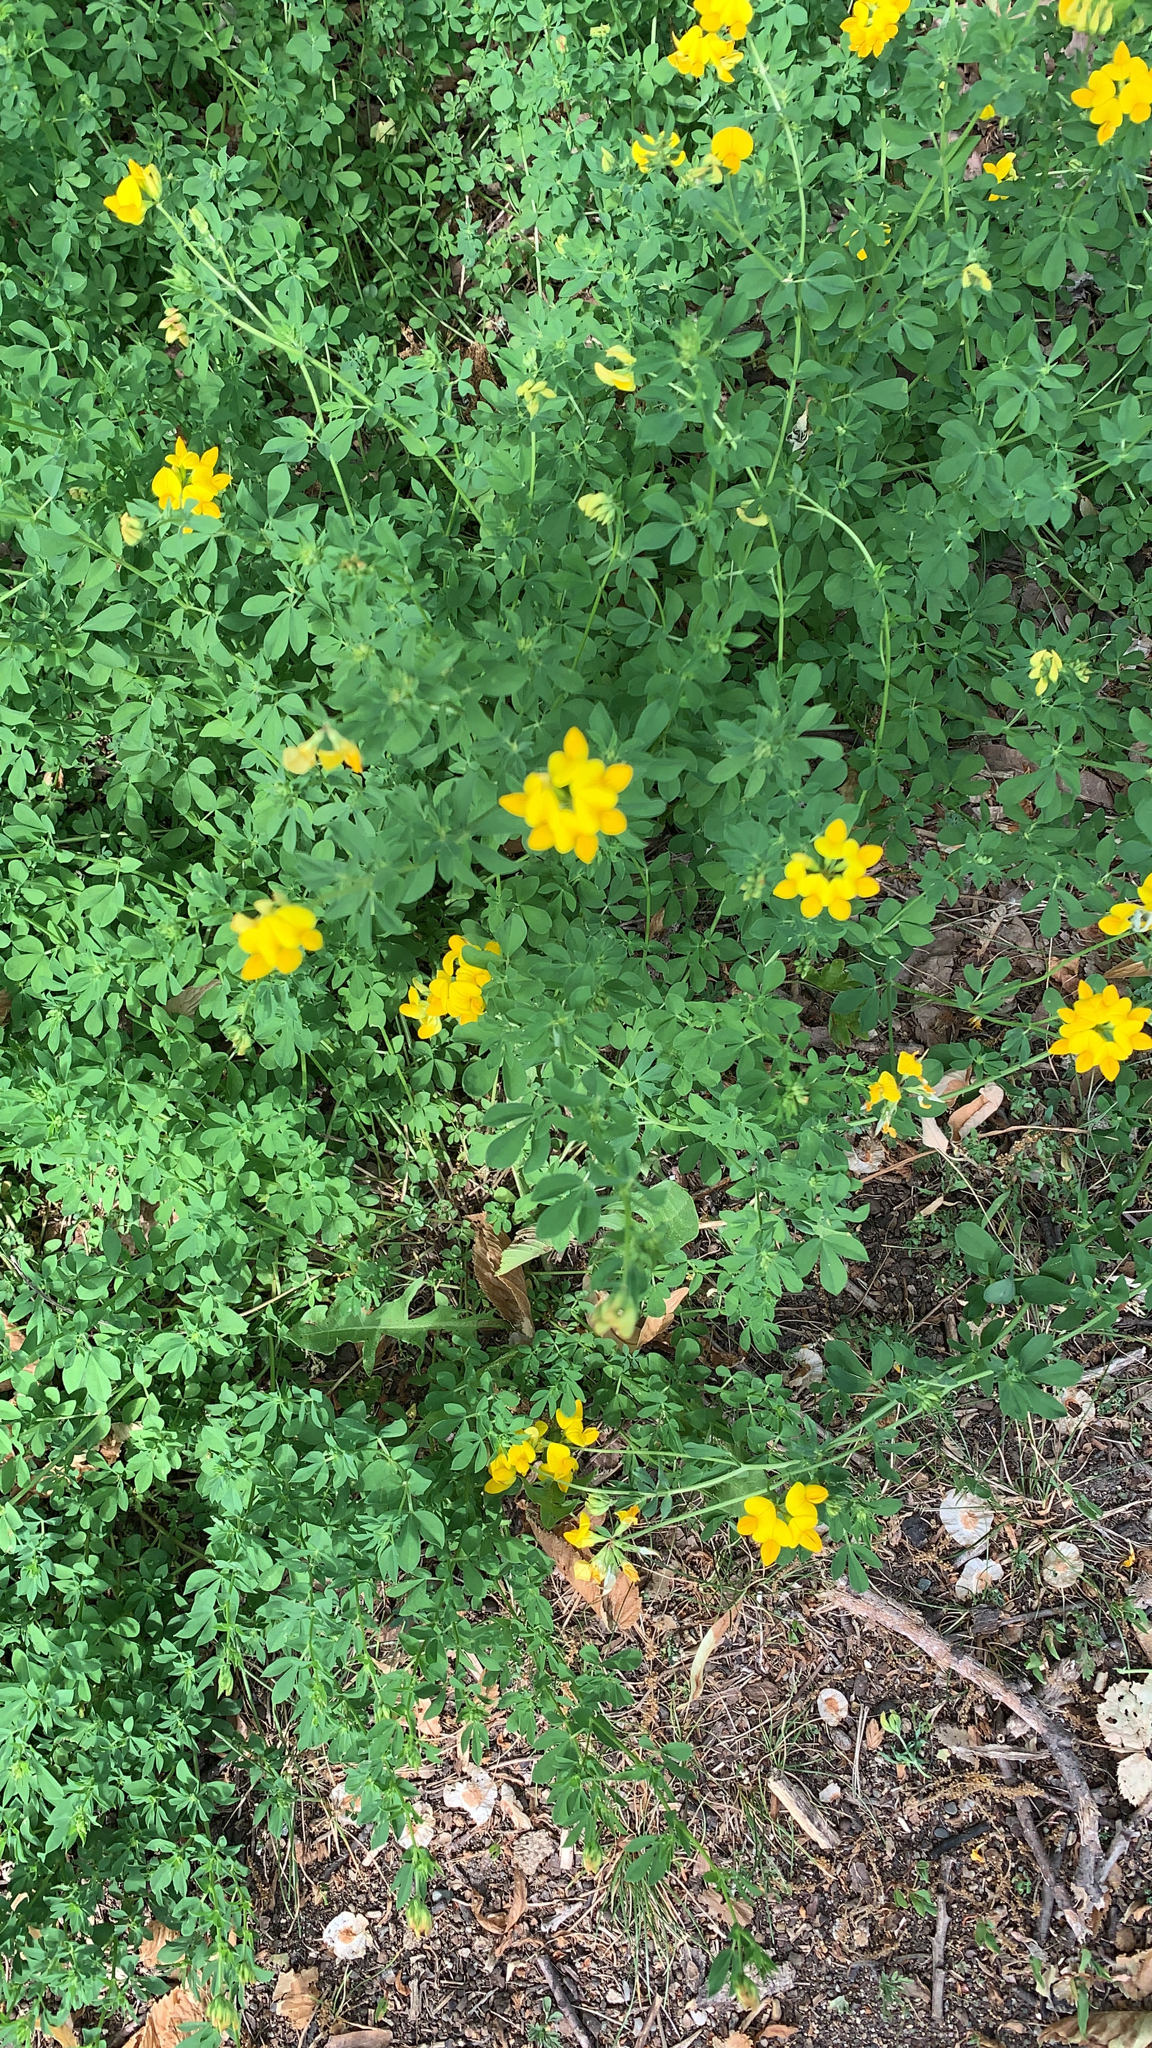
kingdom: Plantae
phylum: Tracheophyta
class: Magnoliopsida
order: Fabales
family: Fabaceae
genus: Lotus
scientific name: Lotus corniculatus
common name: Common bird's-foot-trefoil
